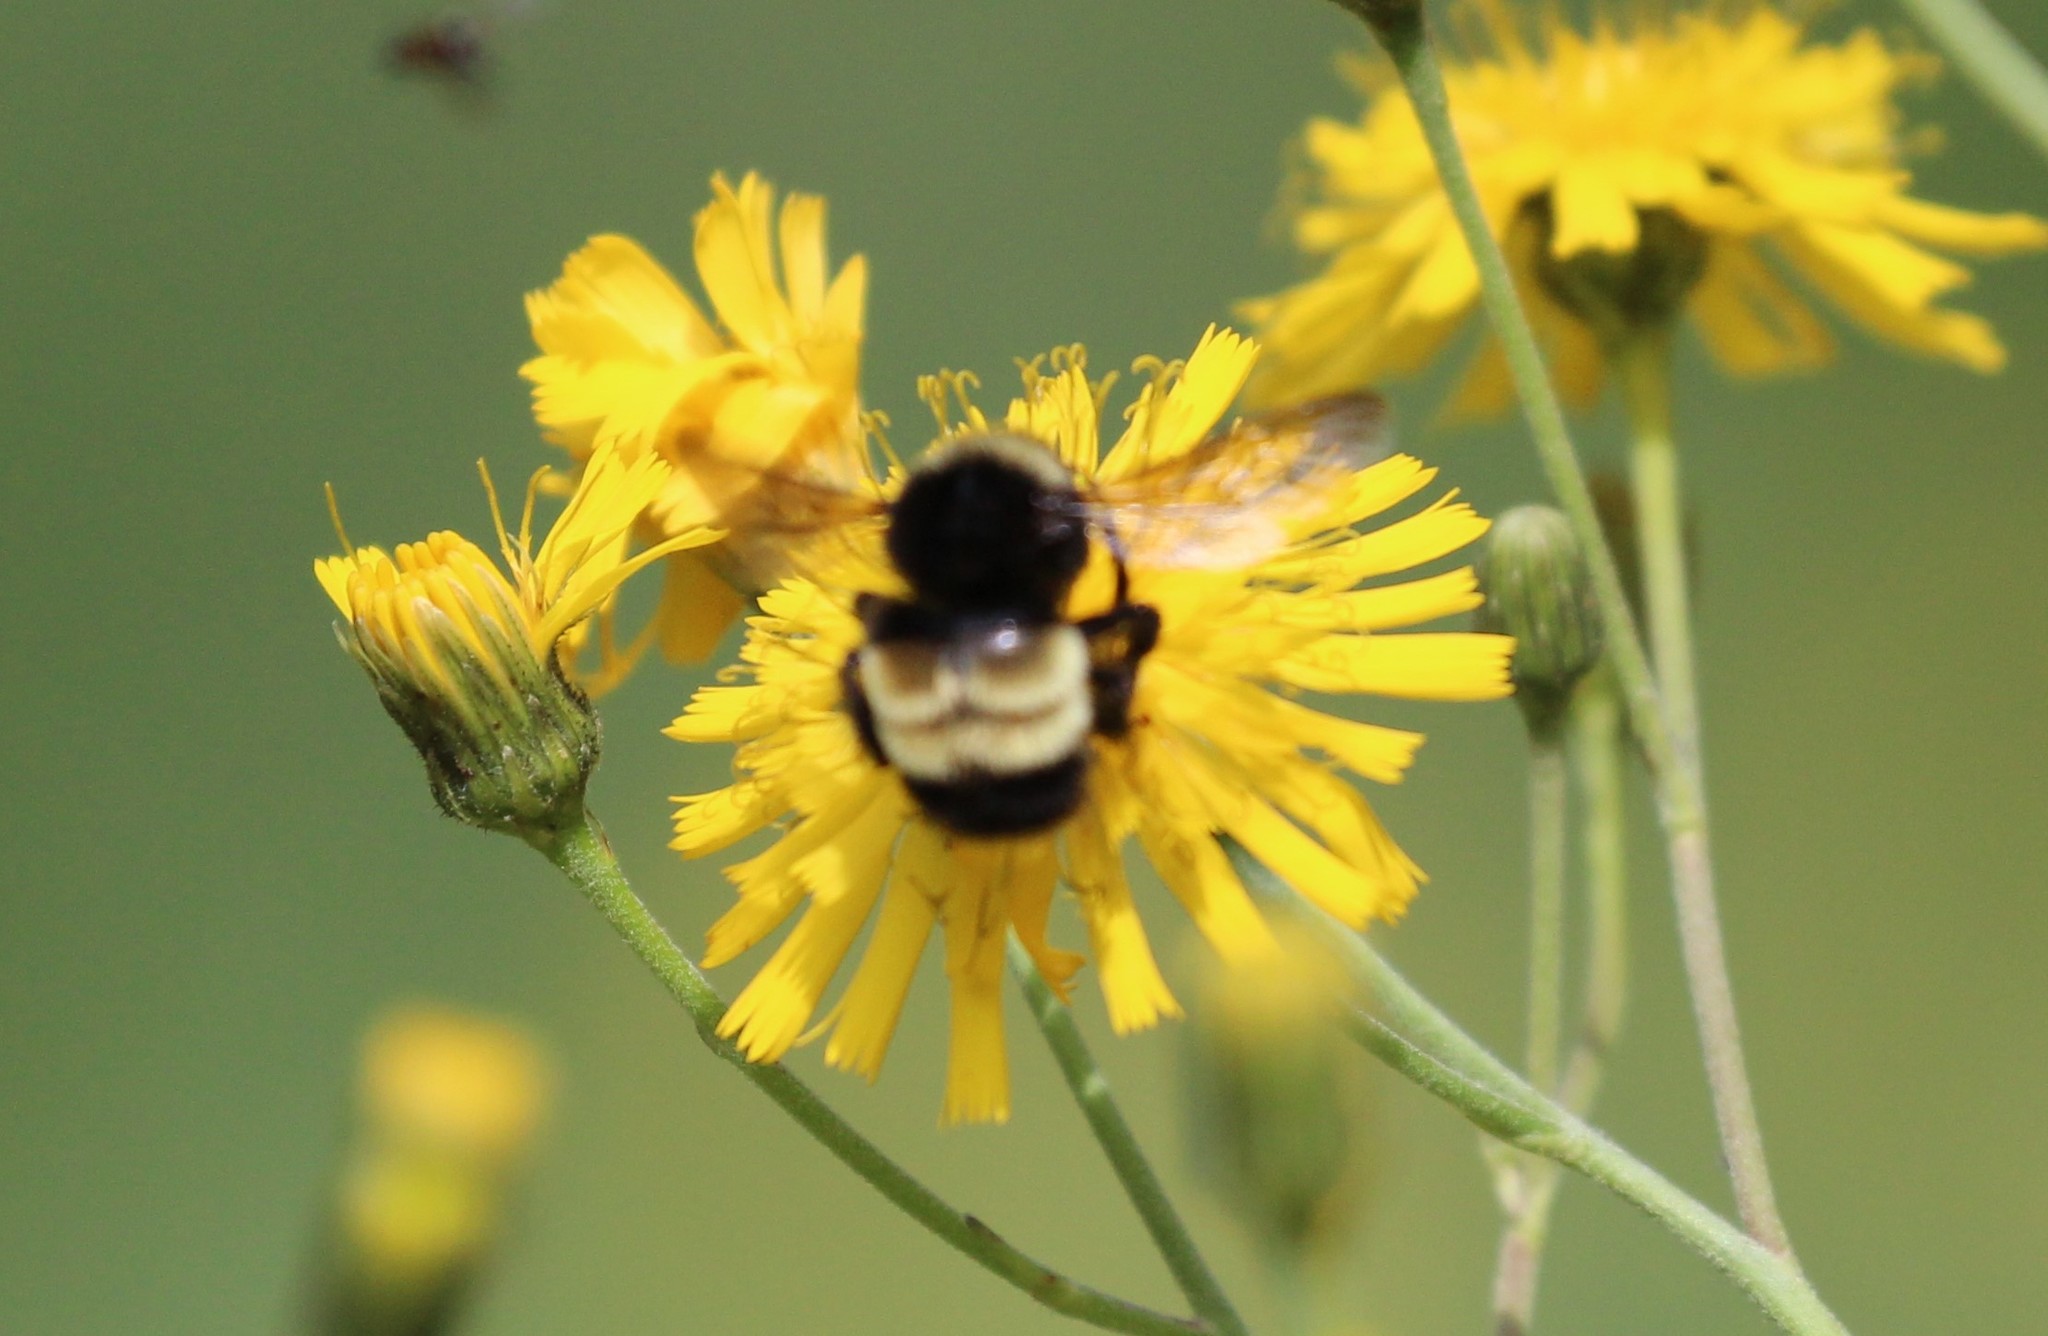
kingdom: Animalia
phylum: Arthropoda
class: Insecta
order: Hymenoptera
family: Apidae
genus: Bombus
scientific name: Bombus terricola
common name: Yellow-banded bumble bee
